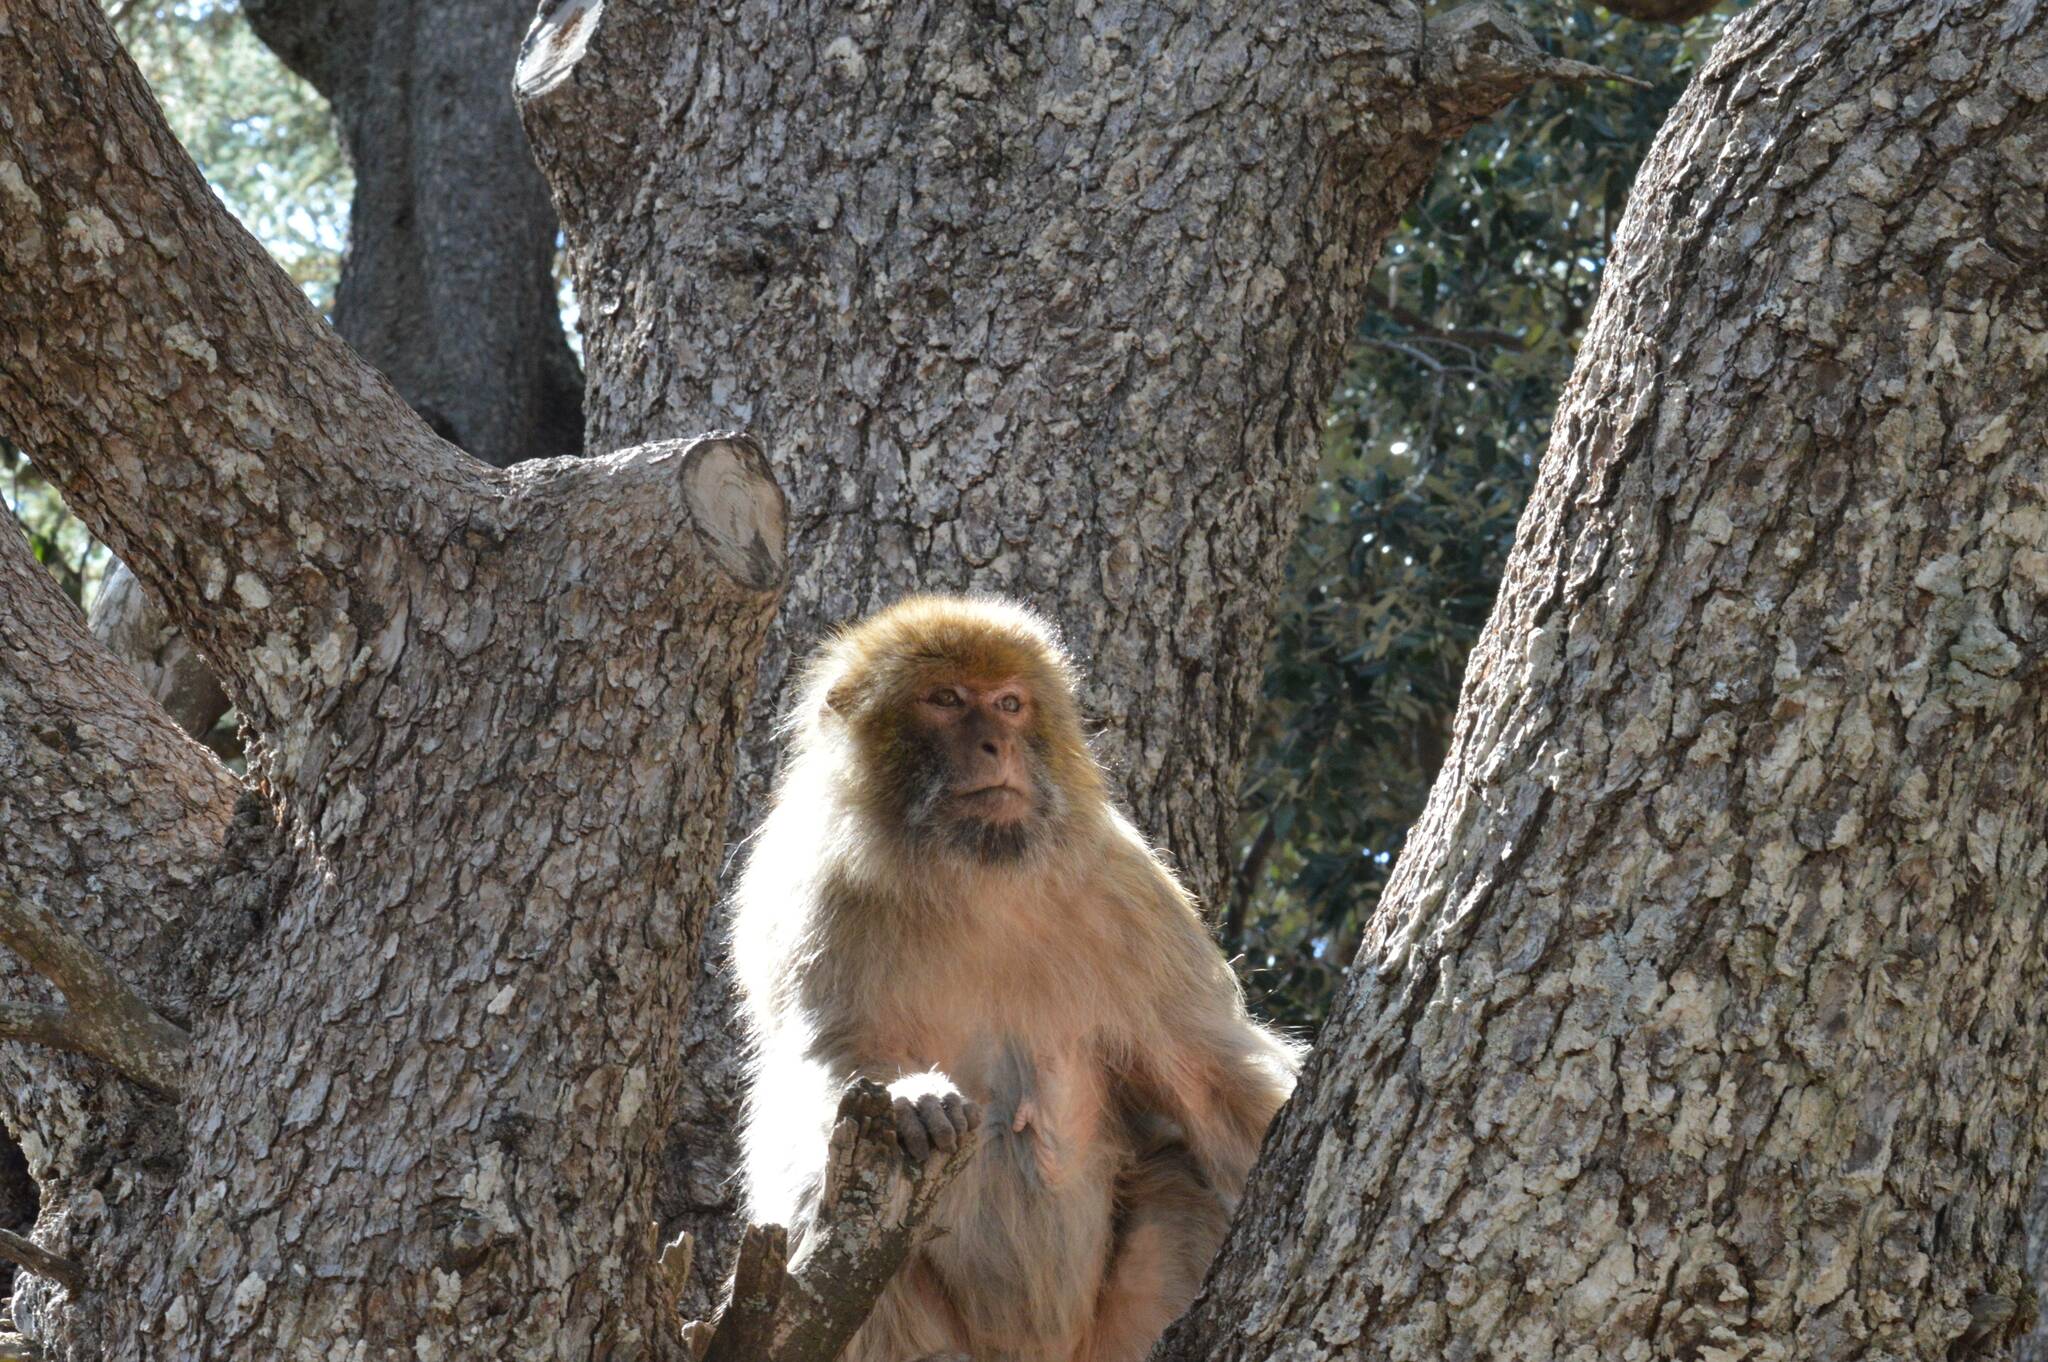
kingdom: Animalia
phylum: Chordata
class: Mammalia
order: Primates
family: Cercopithecidae
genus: Macaca
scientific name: Macaca sylvanus
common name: Barbary macaque
